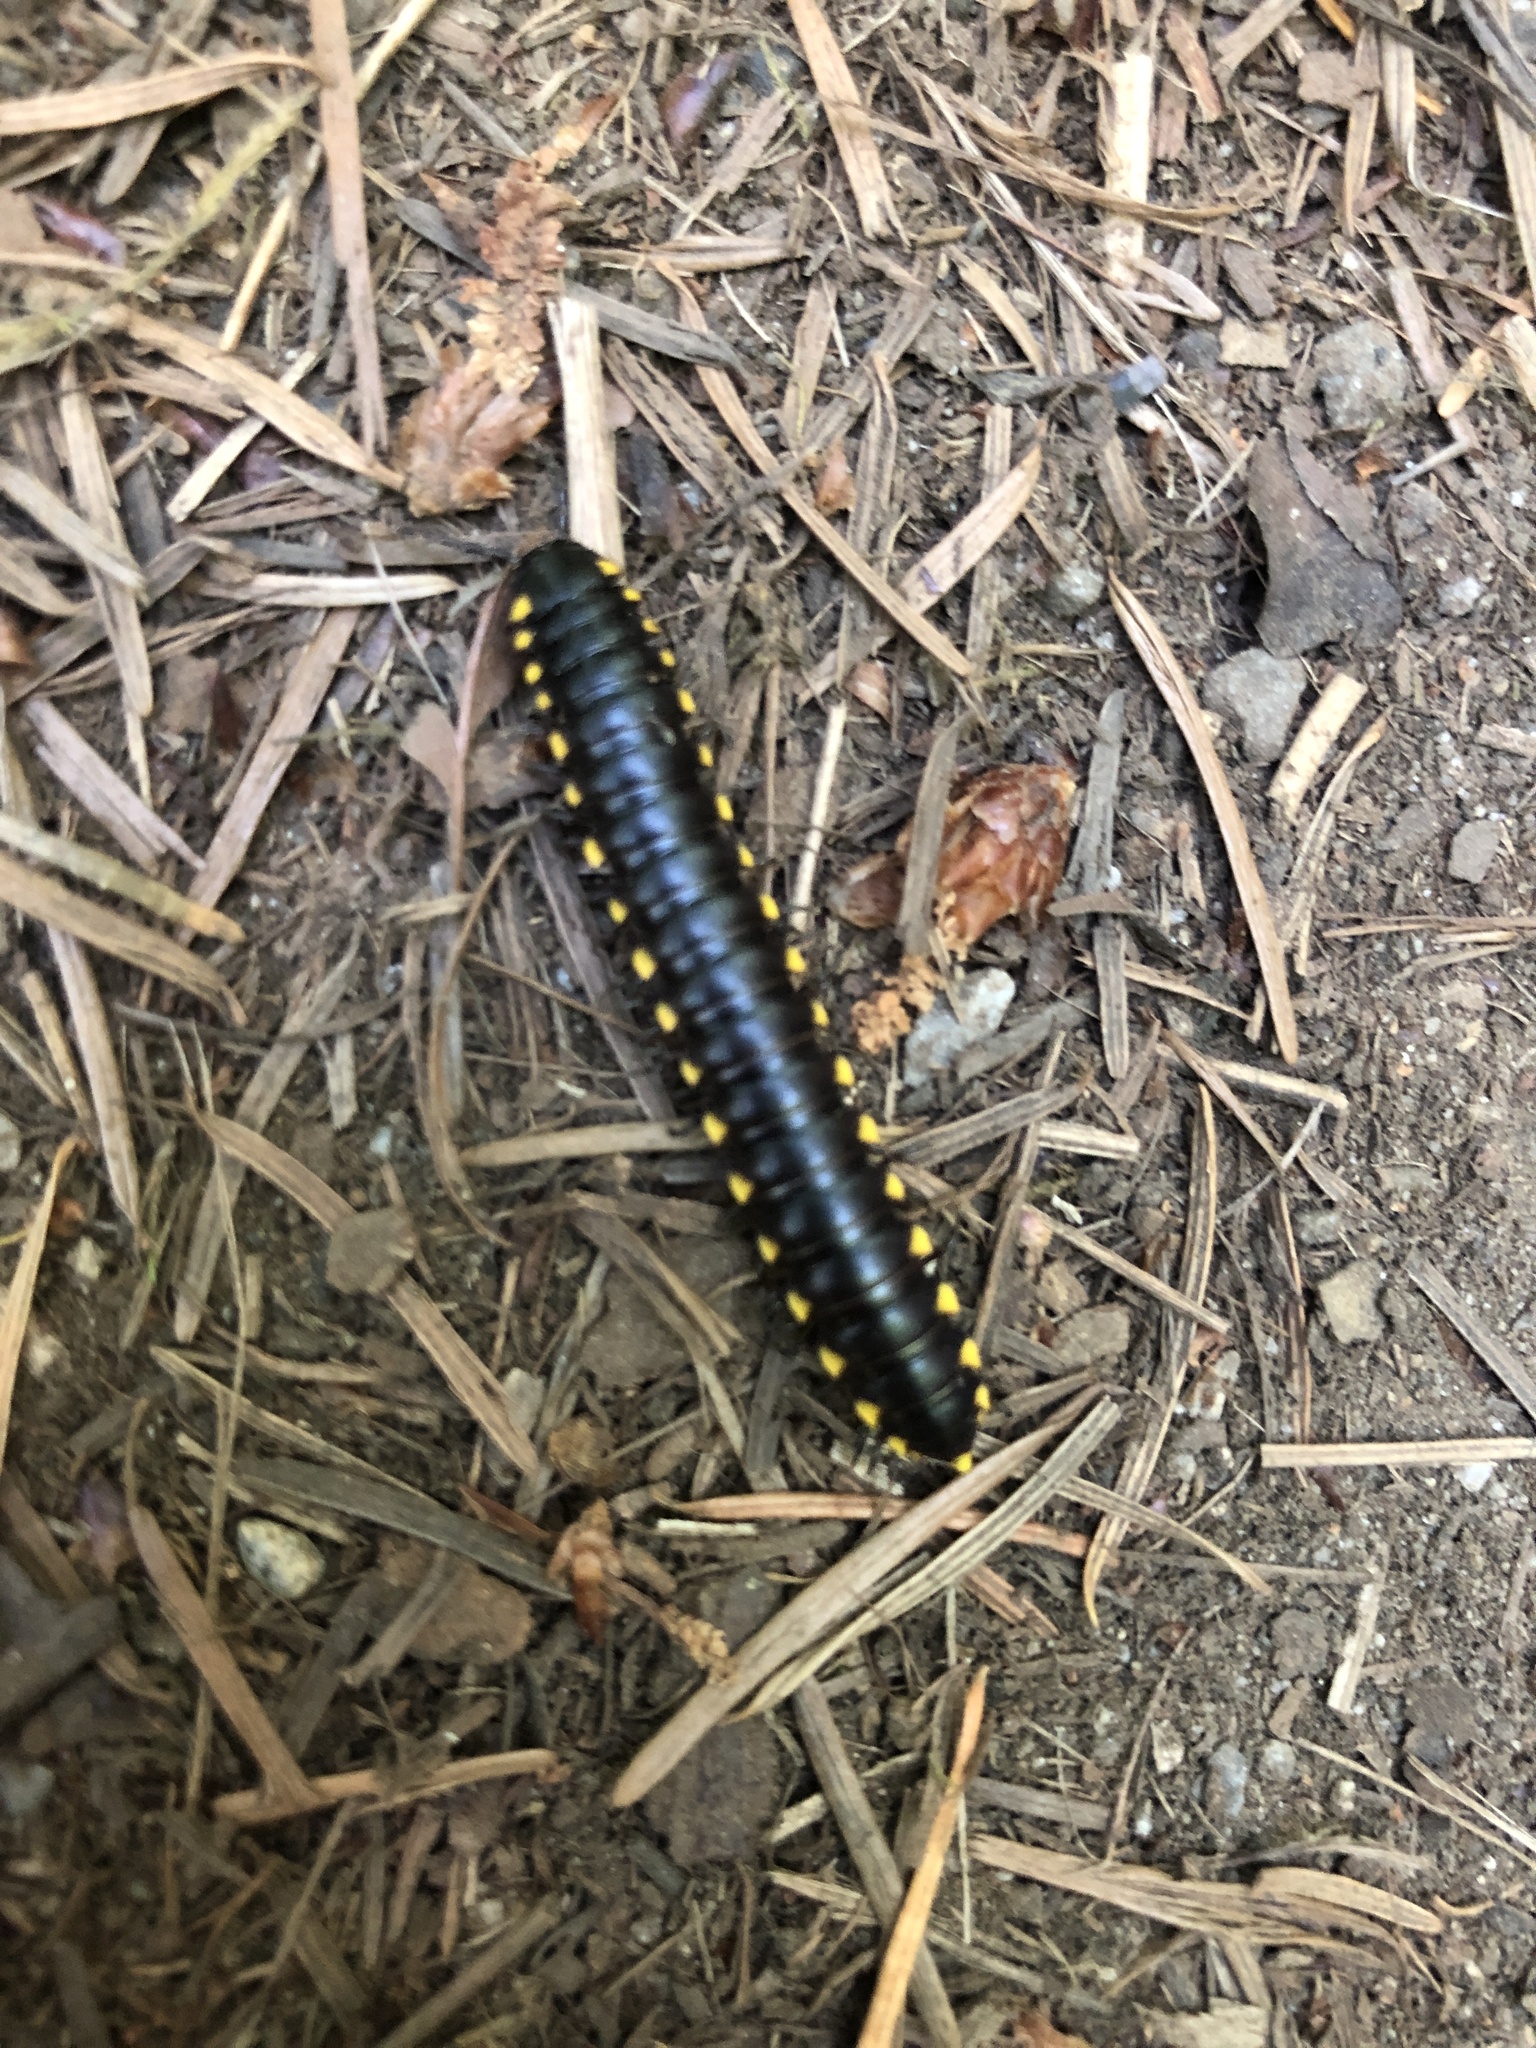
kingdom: Animalia
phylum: Arthropoda
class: Diplopoda
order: Polydesmida
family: Xystodesmidae
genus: Harpaphe
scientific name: Harpaphe haydeniana
